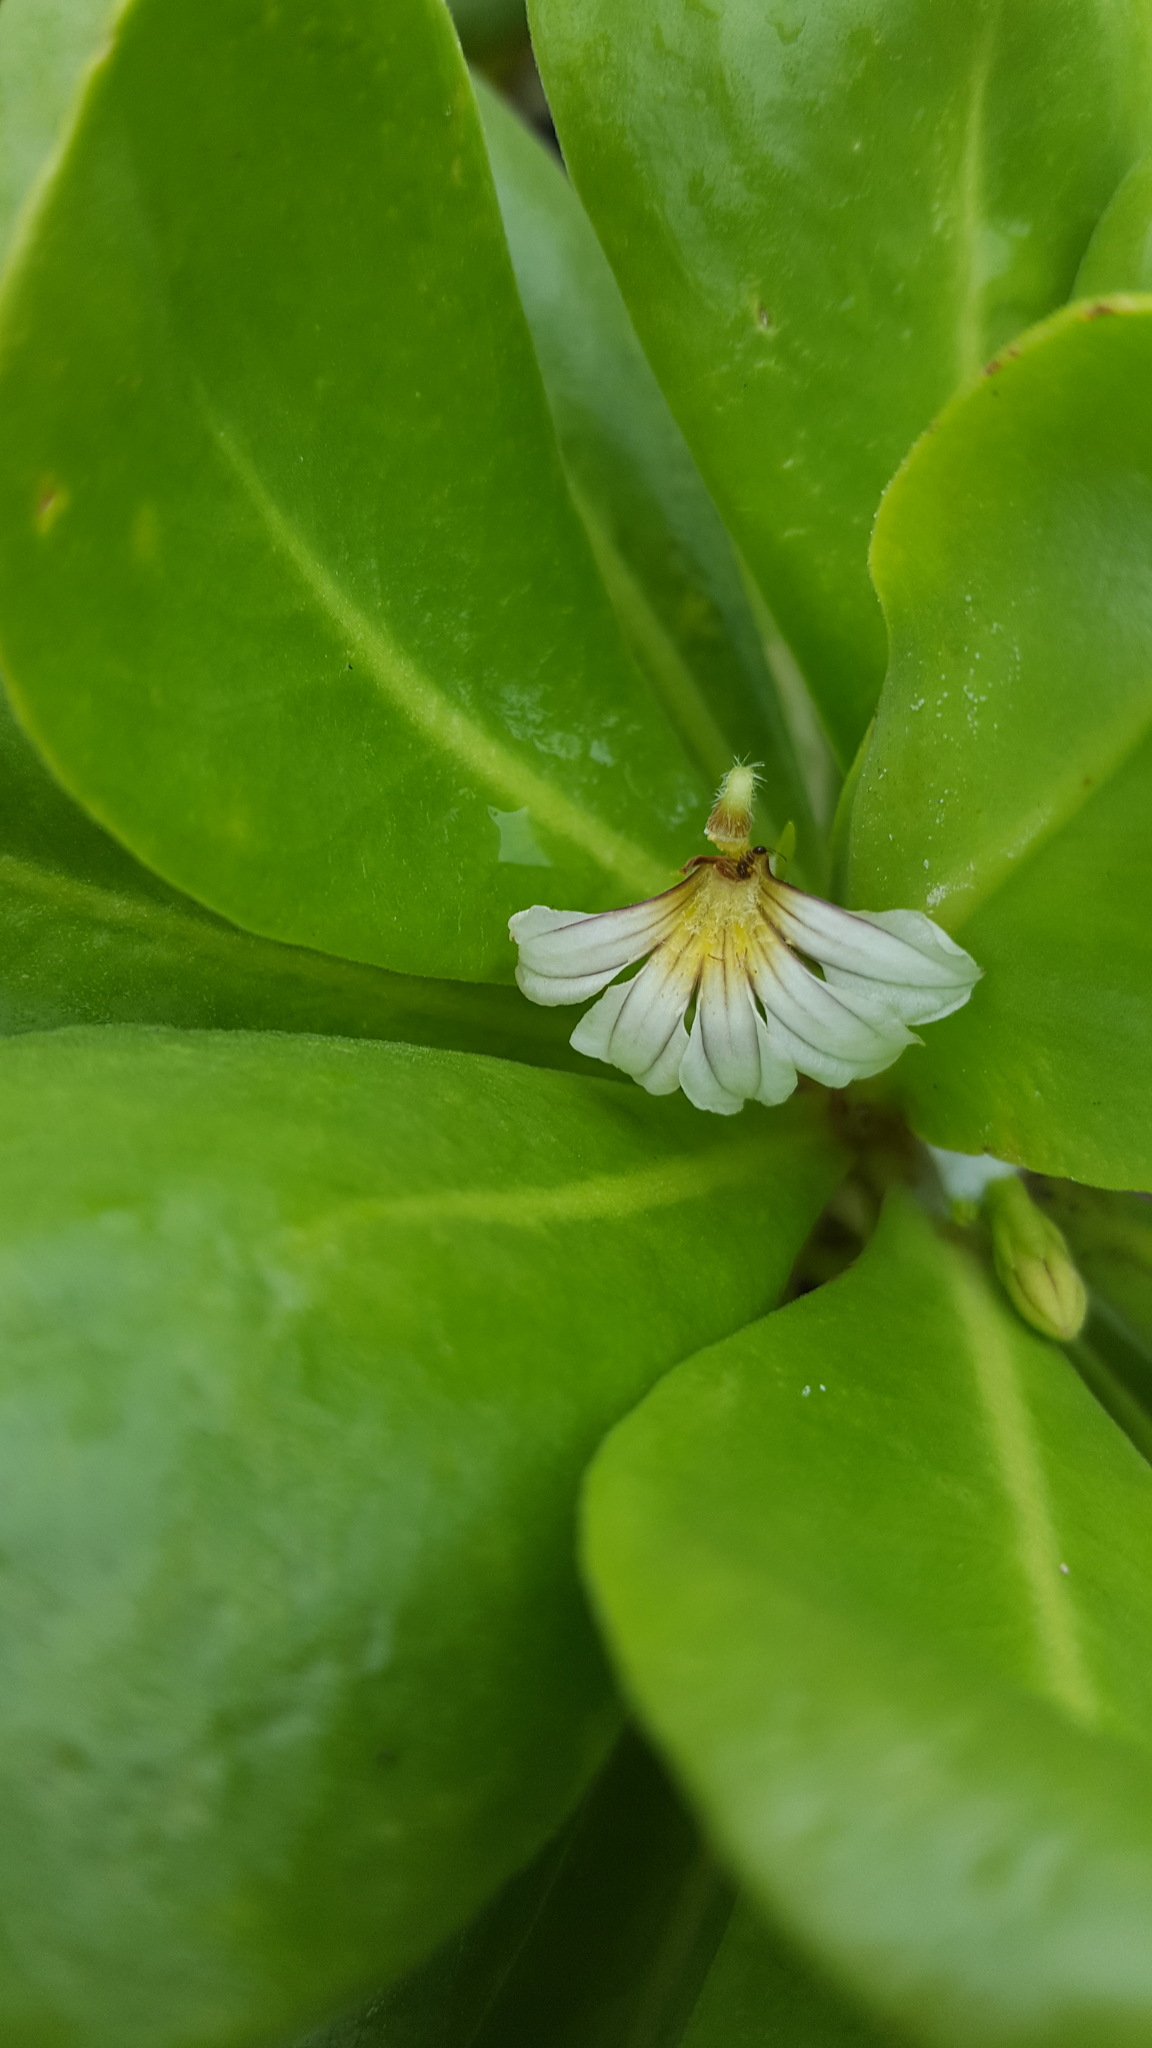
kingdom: Plantae
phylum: Tracheophyta
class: Magnoliopsida
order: Asterales
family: Goodeniaceae
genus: Scaevola
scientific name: Scaevola taccada
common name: Sea lettucetree
